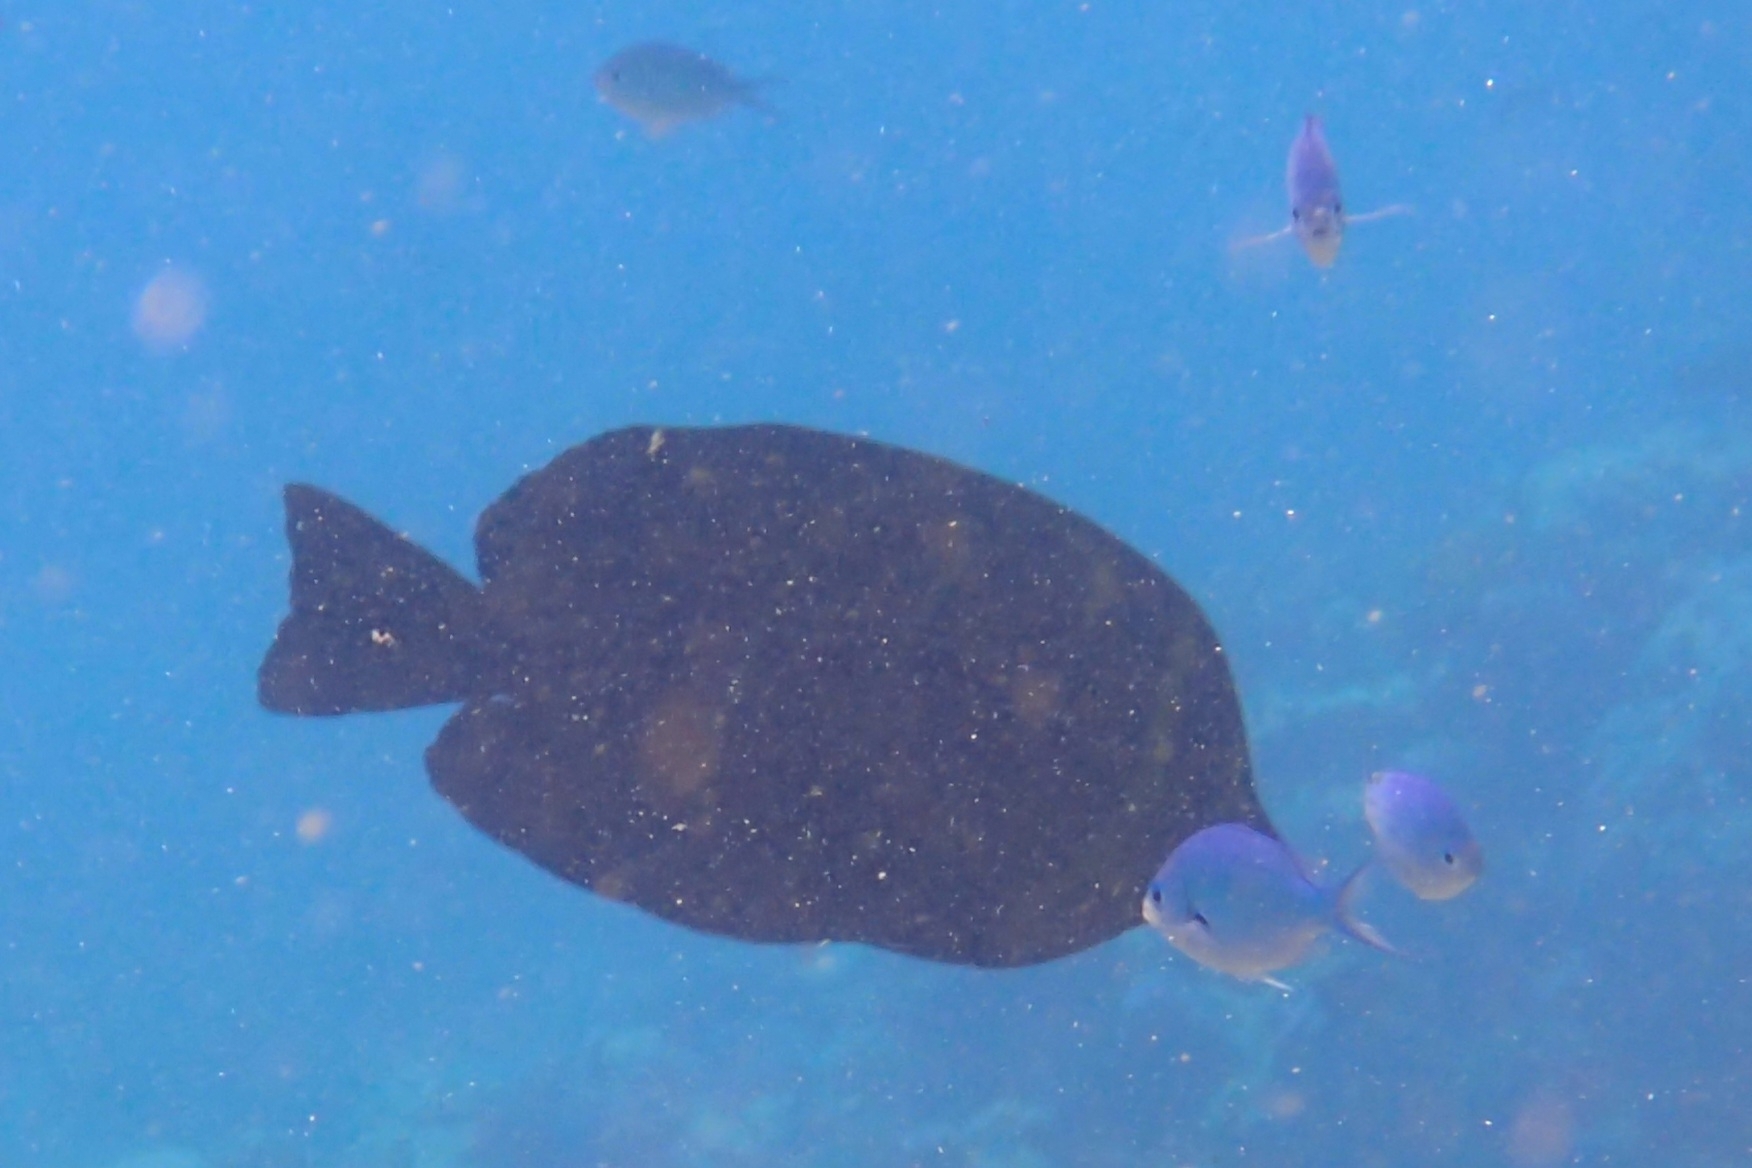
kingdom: Animalia
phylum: Chordata
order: Perciformes
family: Acanthuridae
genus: Zebrasoma
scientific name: Zebrasoma veliferum
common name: Sailfin surgeonfish
